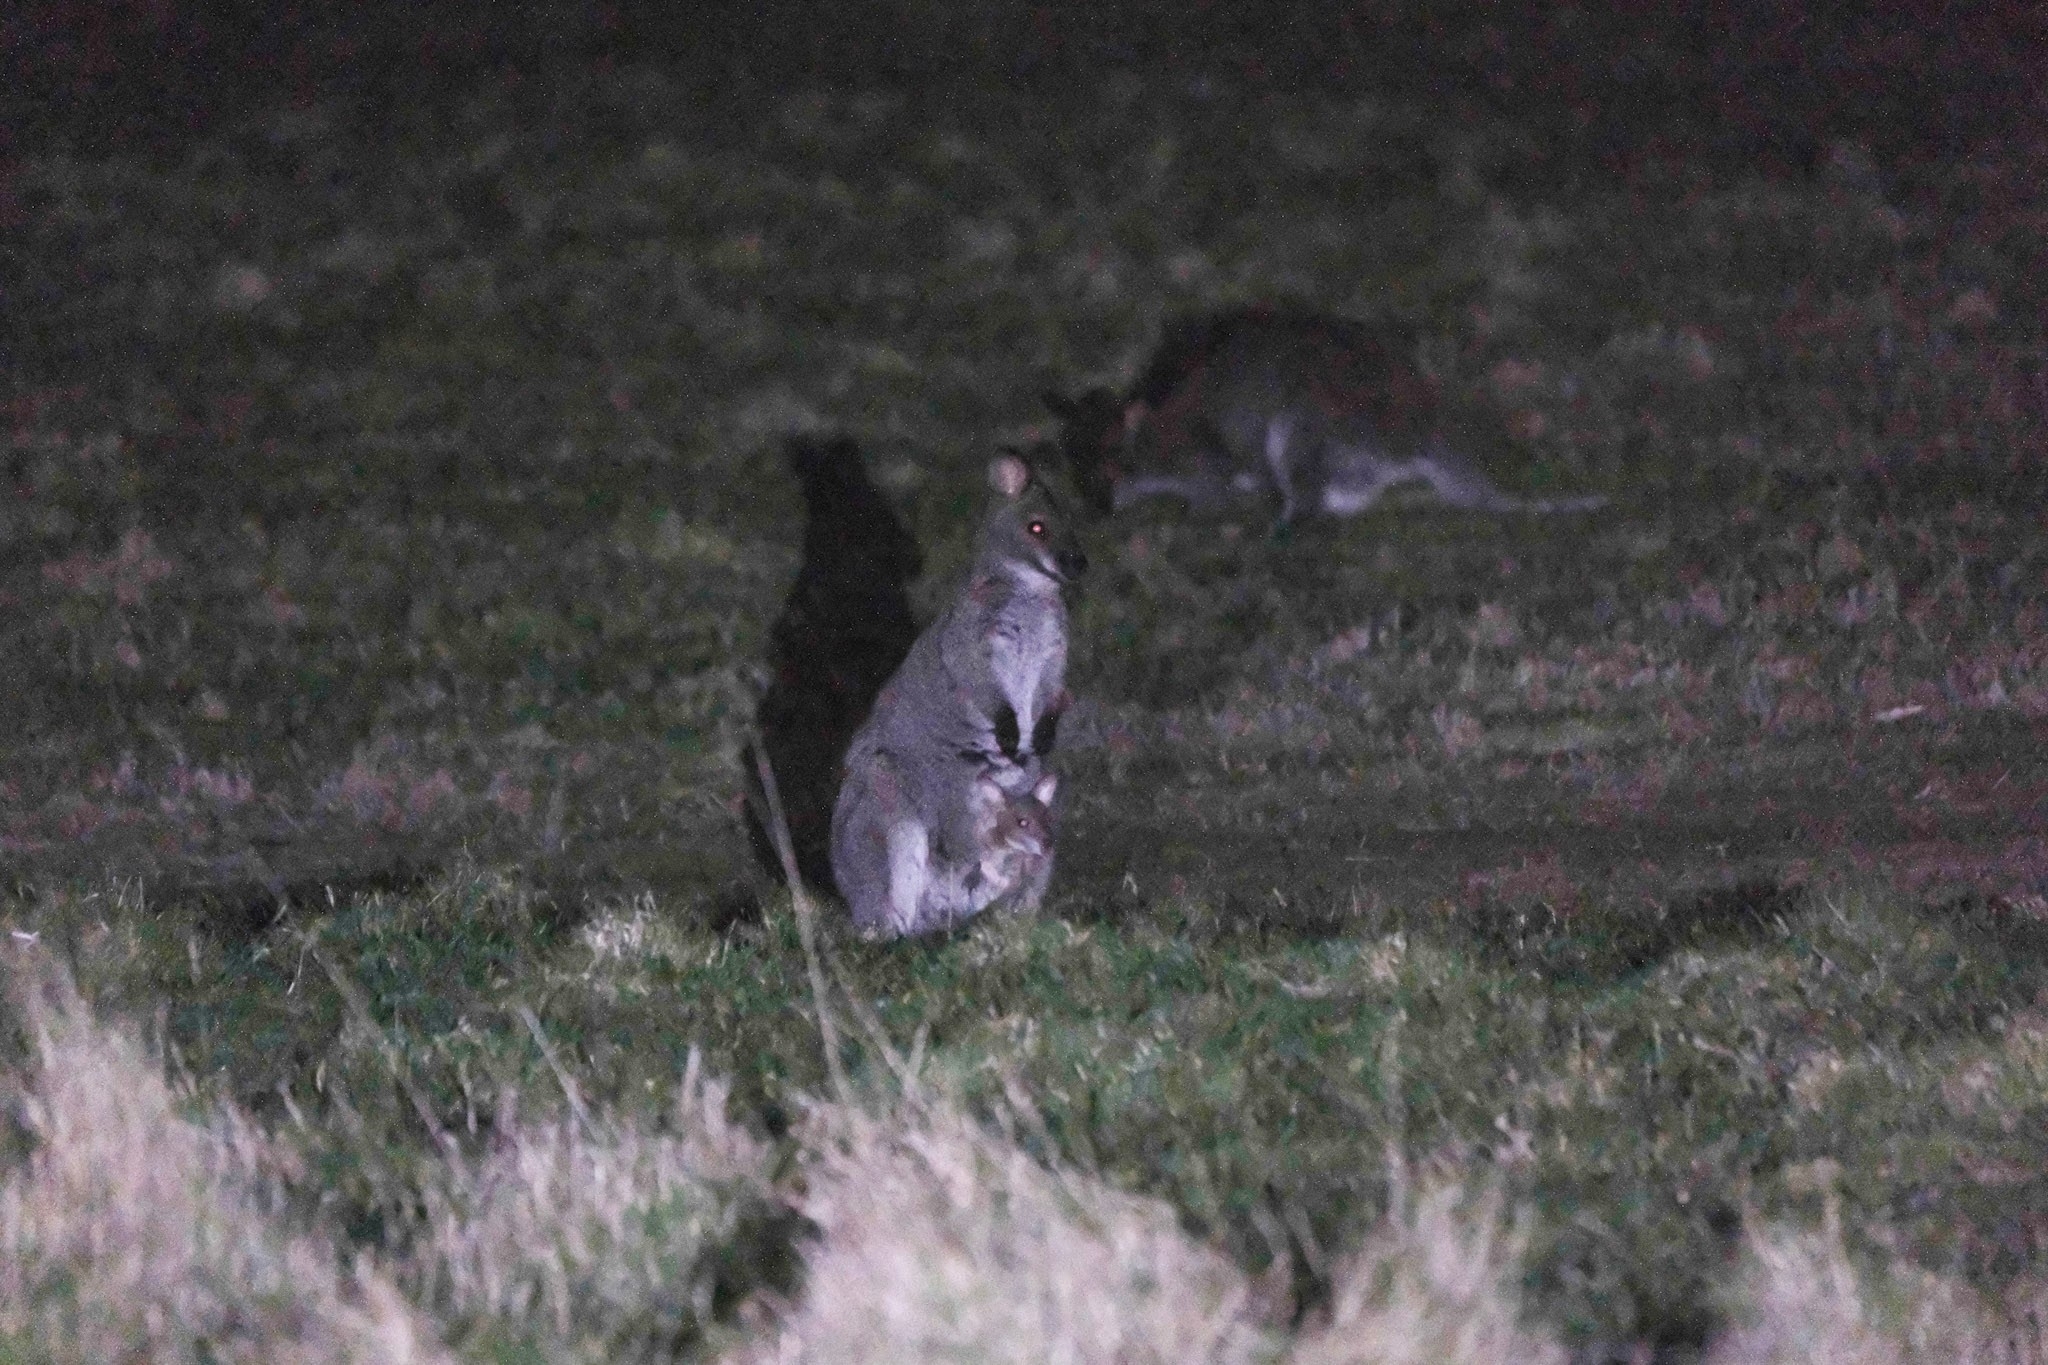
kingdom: Animalia
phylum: Chordata
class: Mammalia
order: Diprotodontia
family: Macropodidae
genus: Notamacropus
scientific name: Notamacropus rufogriseus
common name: Red-necked wallaby
